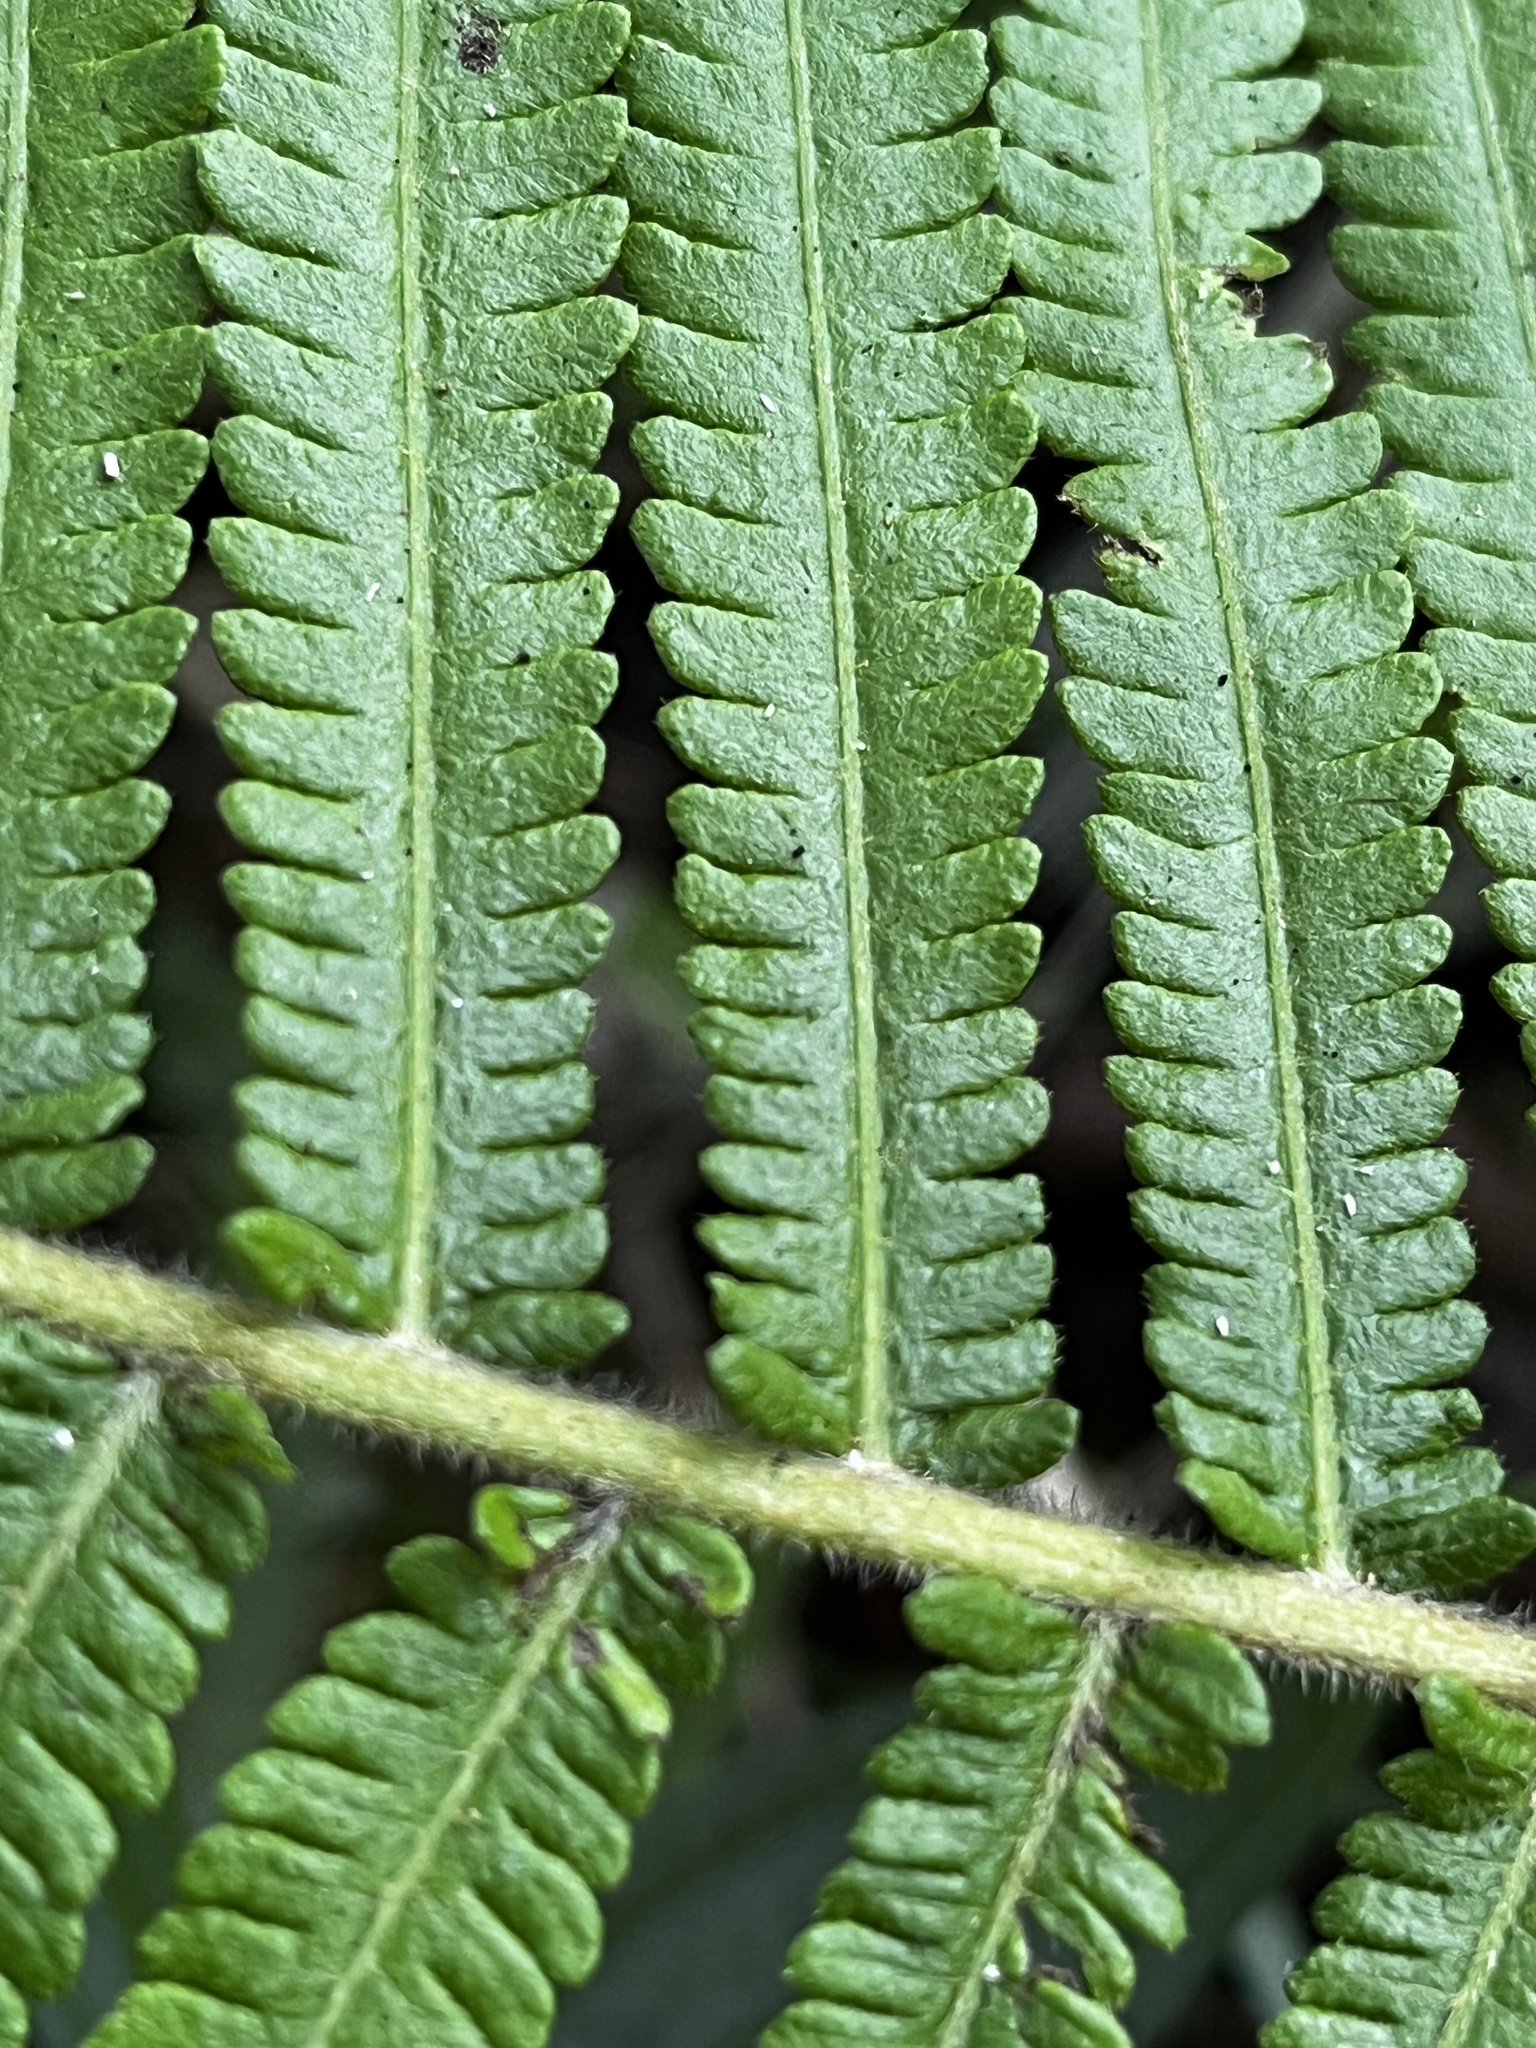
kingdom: Plantae
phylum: Tracheophyta
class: Polypodiopsida
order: Polypodiales
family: Thelypteridaceae
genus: Sphaerostephanos
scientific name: Sphaerostephanos taiwanensis
